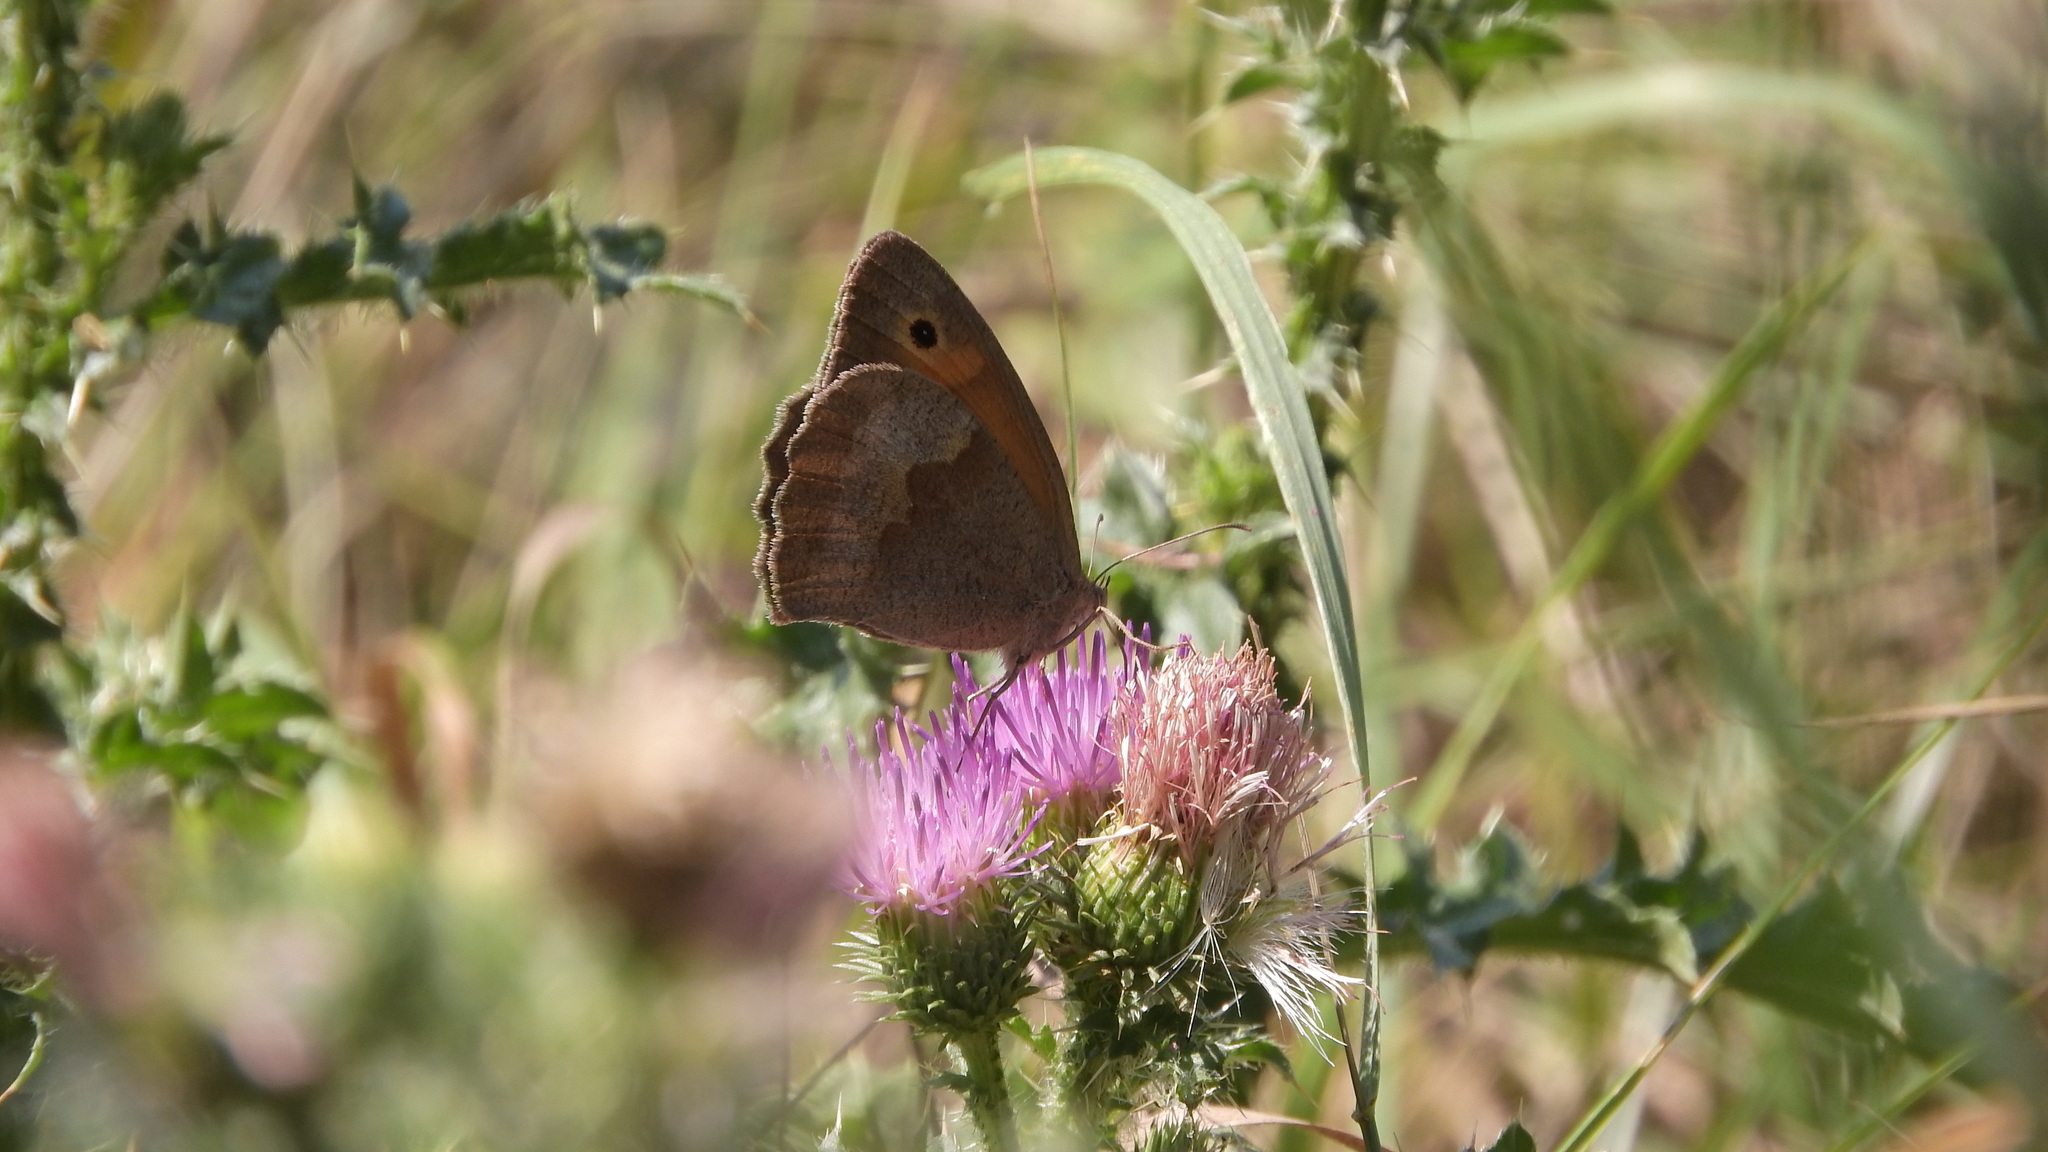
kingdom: Animalia
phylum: Arthropoda
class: Insecta
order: Lepidoptera
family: Nymphalidae
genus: Maniola
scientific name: Maniola jurtina
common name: Meadow brown
